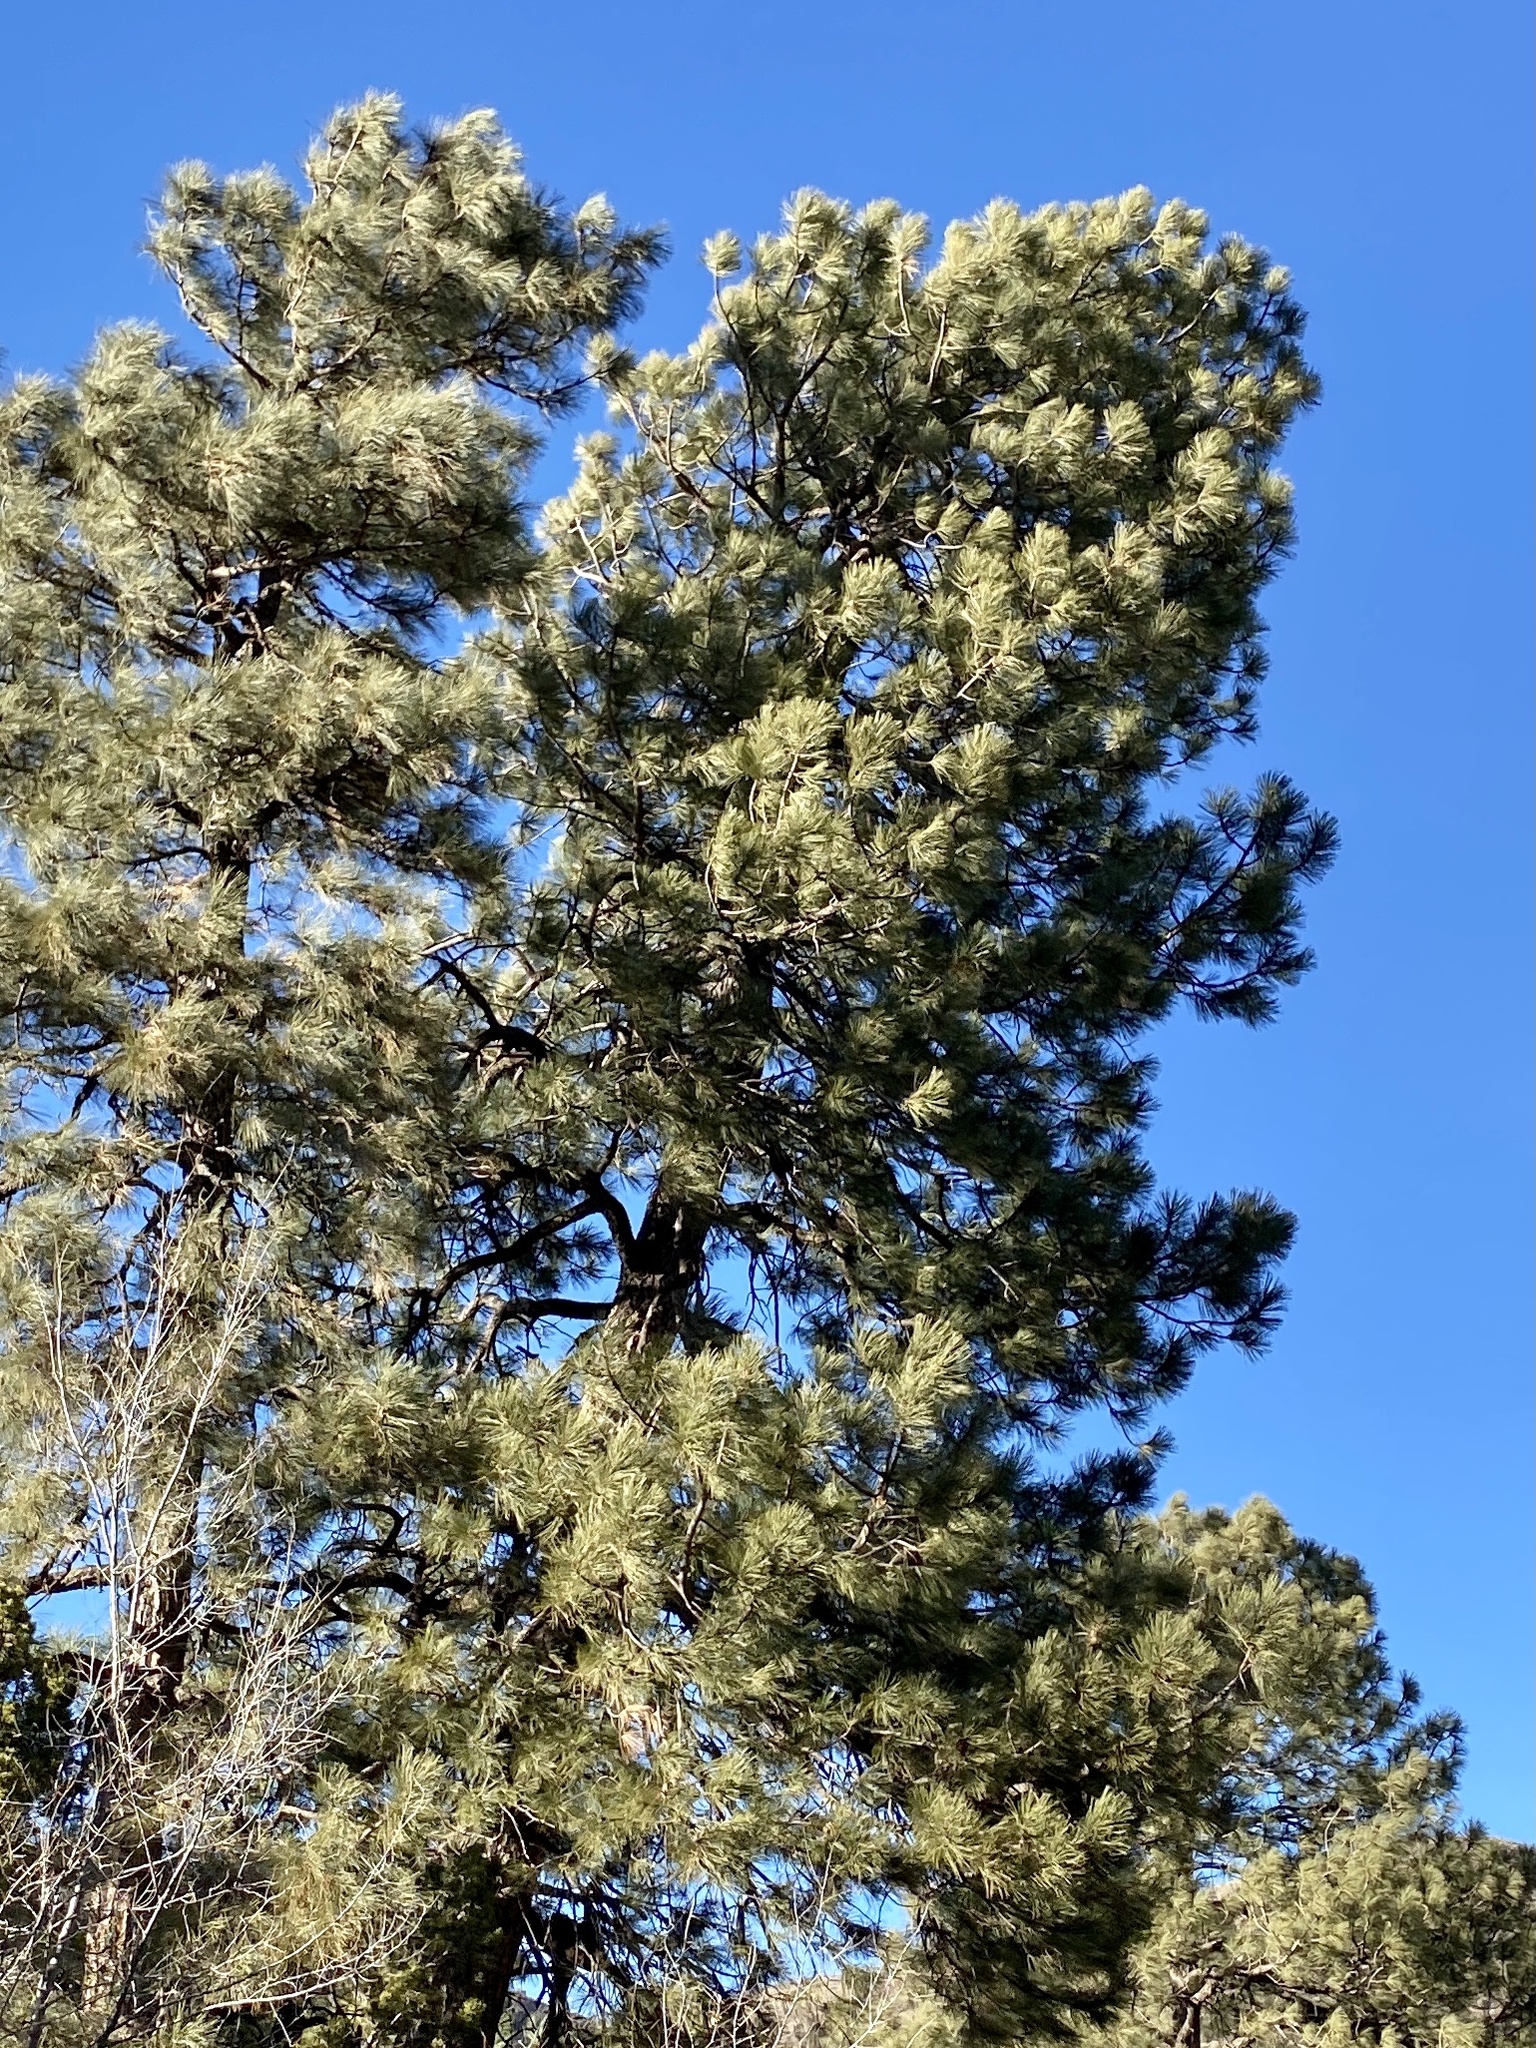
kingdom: Plantae
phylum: Tracheophyta
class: Pinopsida
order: Pinales
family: Pinaceae
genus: Pinus
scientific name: Pinus ponderosa
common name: Western yellow-pine
